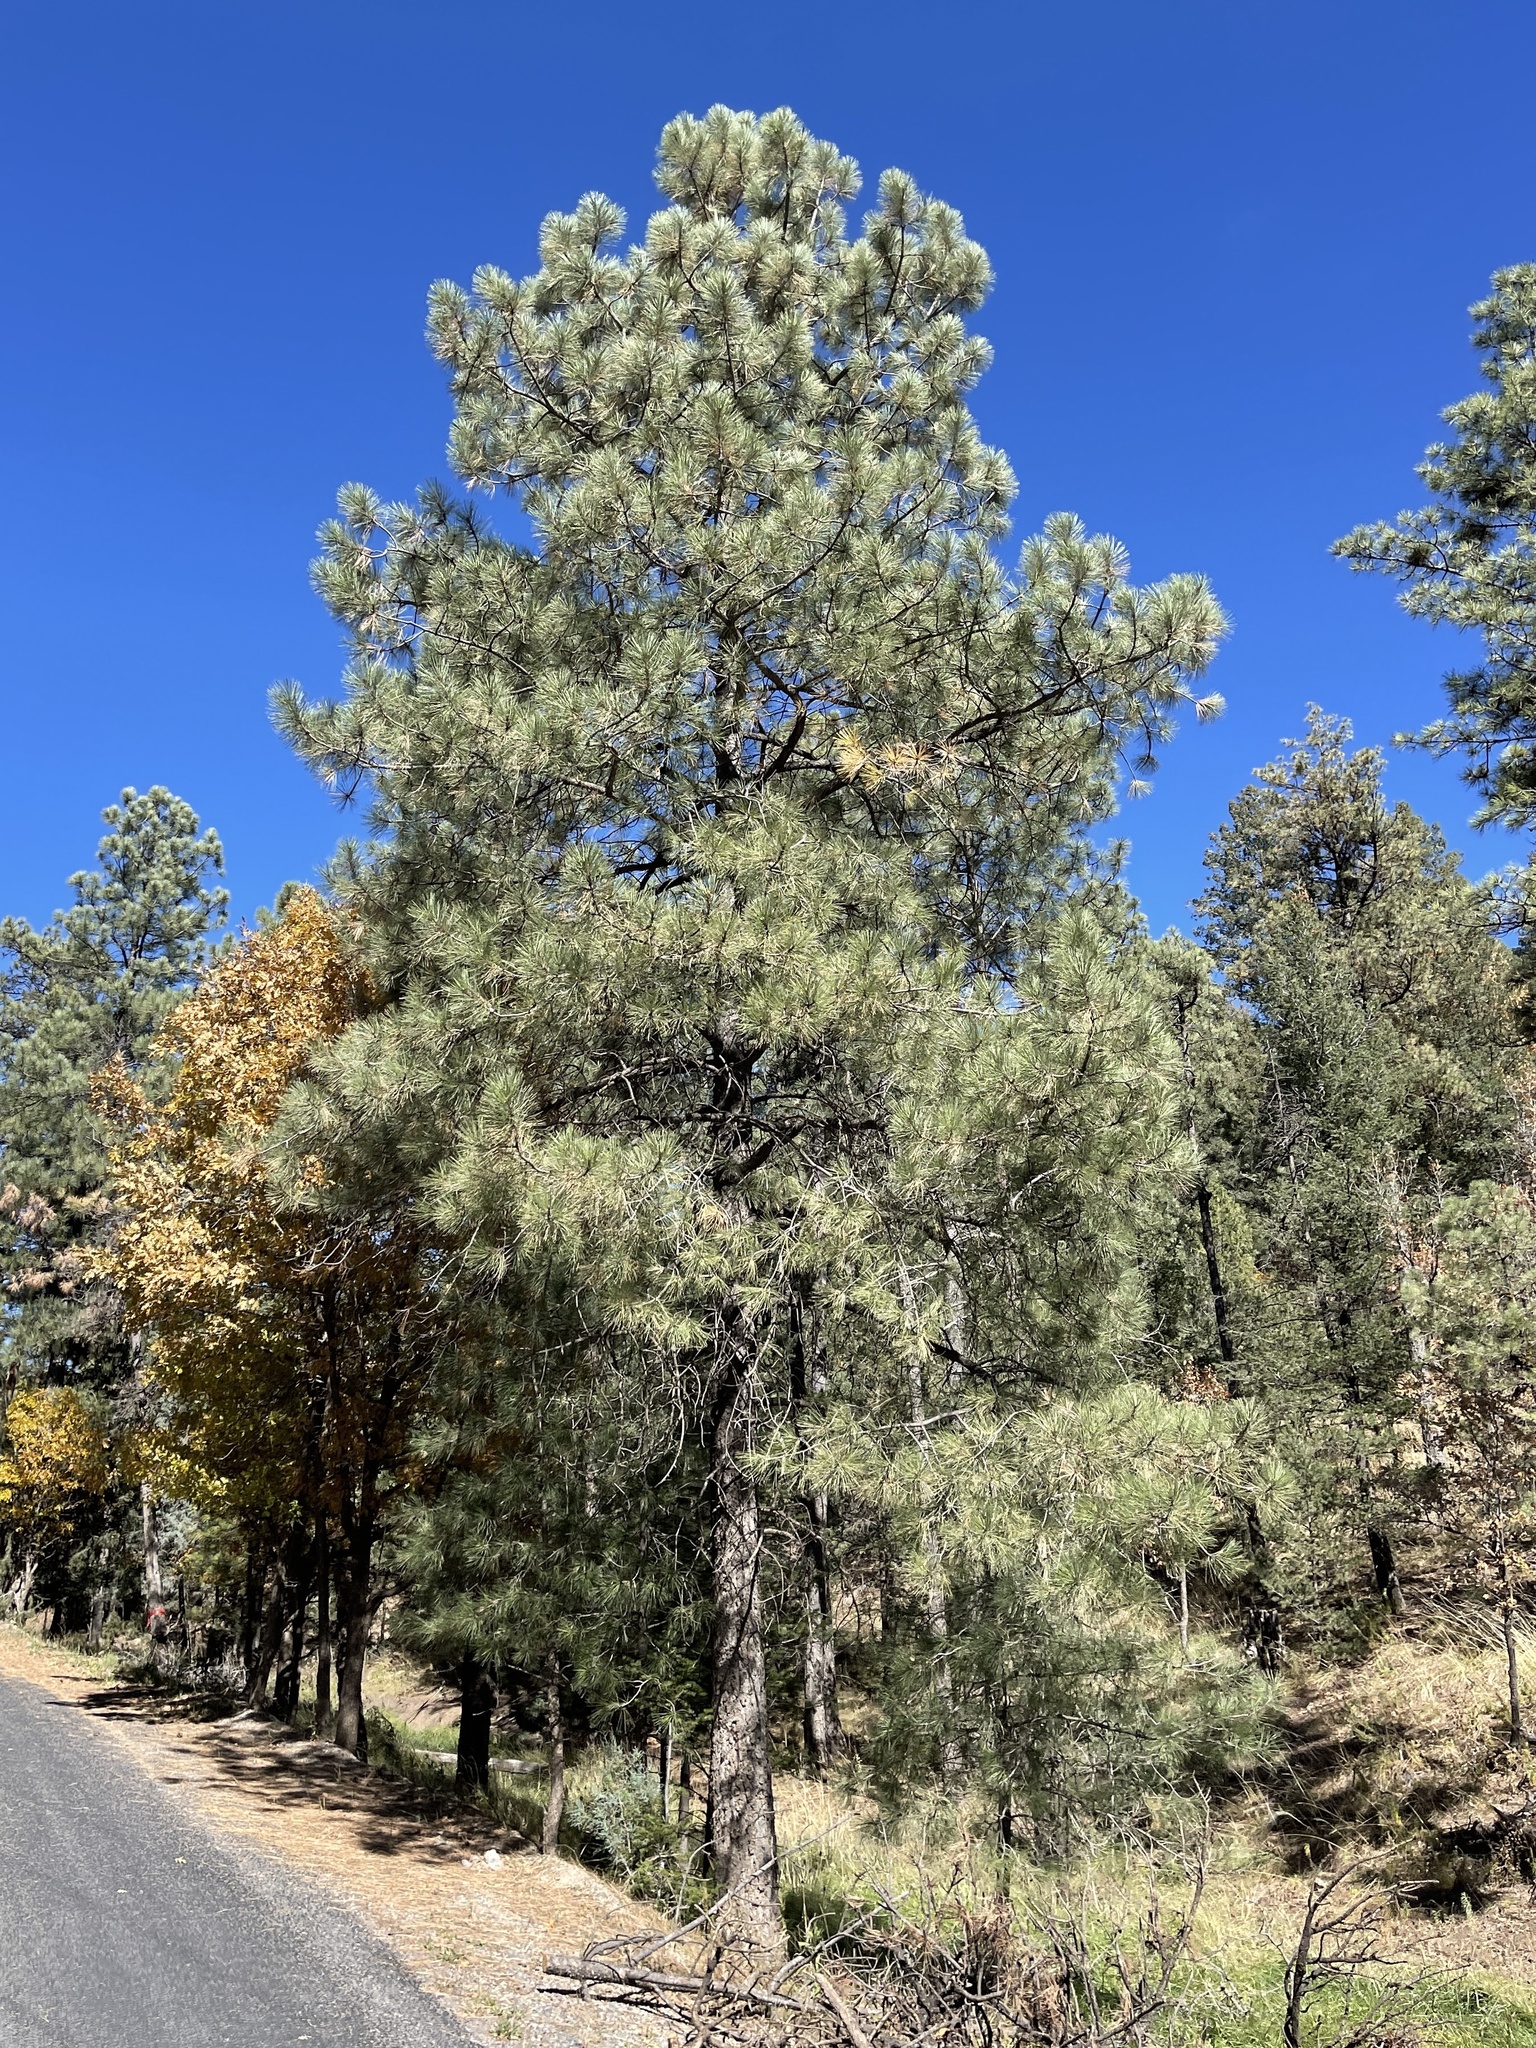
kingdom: Plantae
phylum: Tracheophyta
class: Pinopsida
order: Pinales
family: Pinaceae
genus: Pinus
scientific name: Pinus ponderosa
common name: Western yellow-pine
